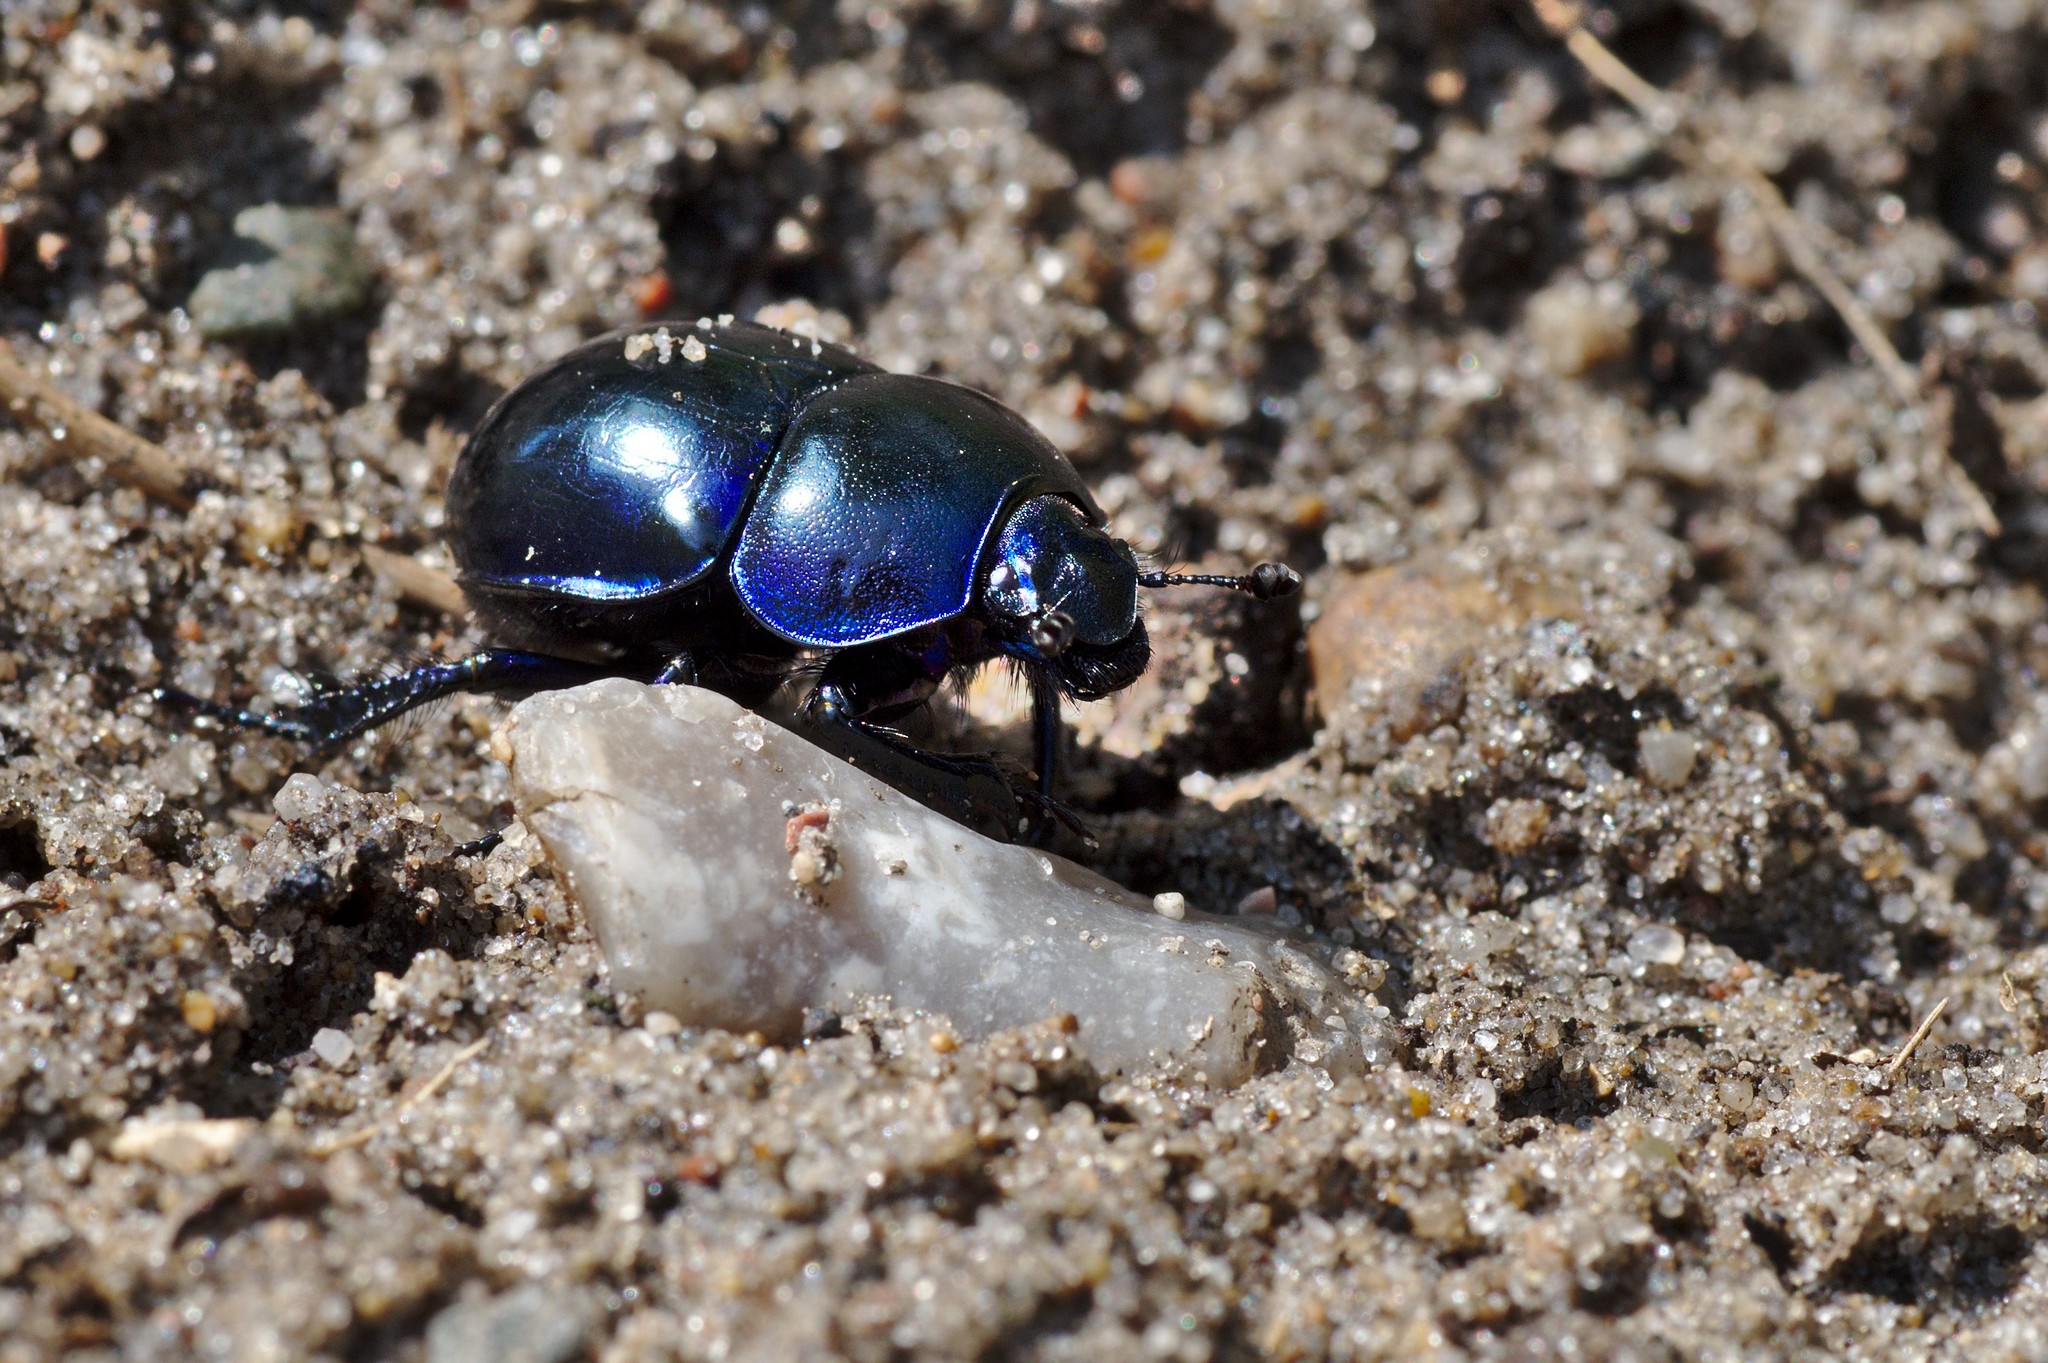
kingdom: Animalia
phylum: Arthropoda
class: Insecta
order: Coleoptera
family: Geotrupidae
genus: Trypocopris
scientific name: Trypocopris vernalis
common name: Spring dumbledor
